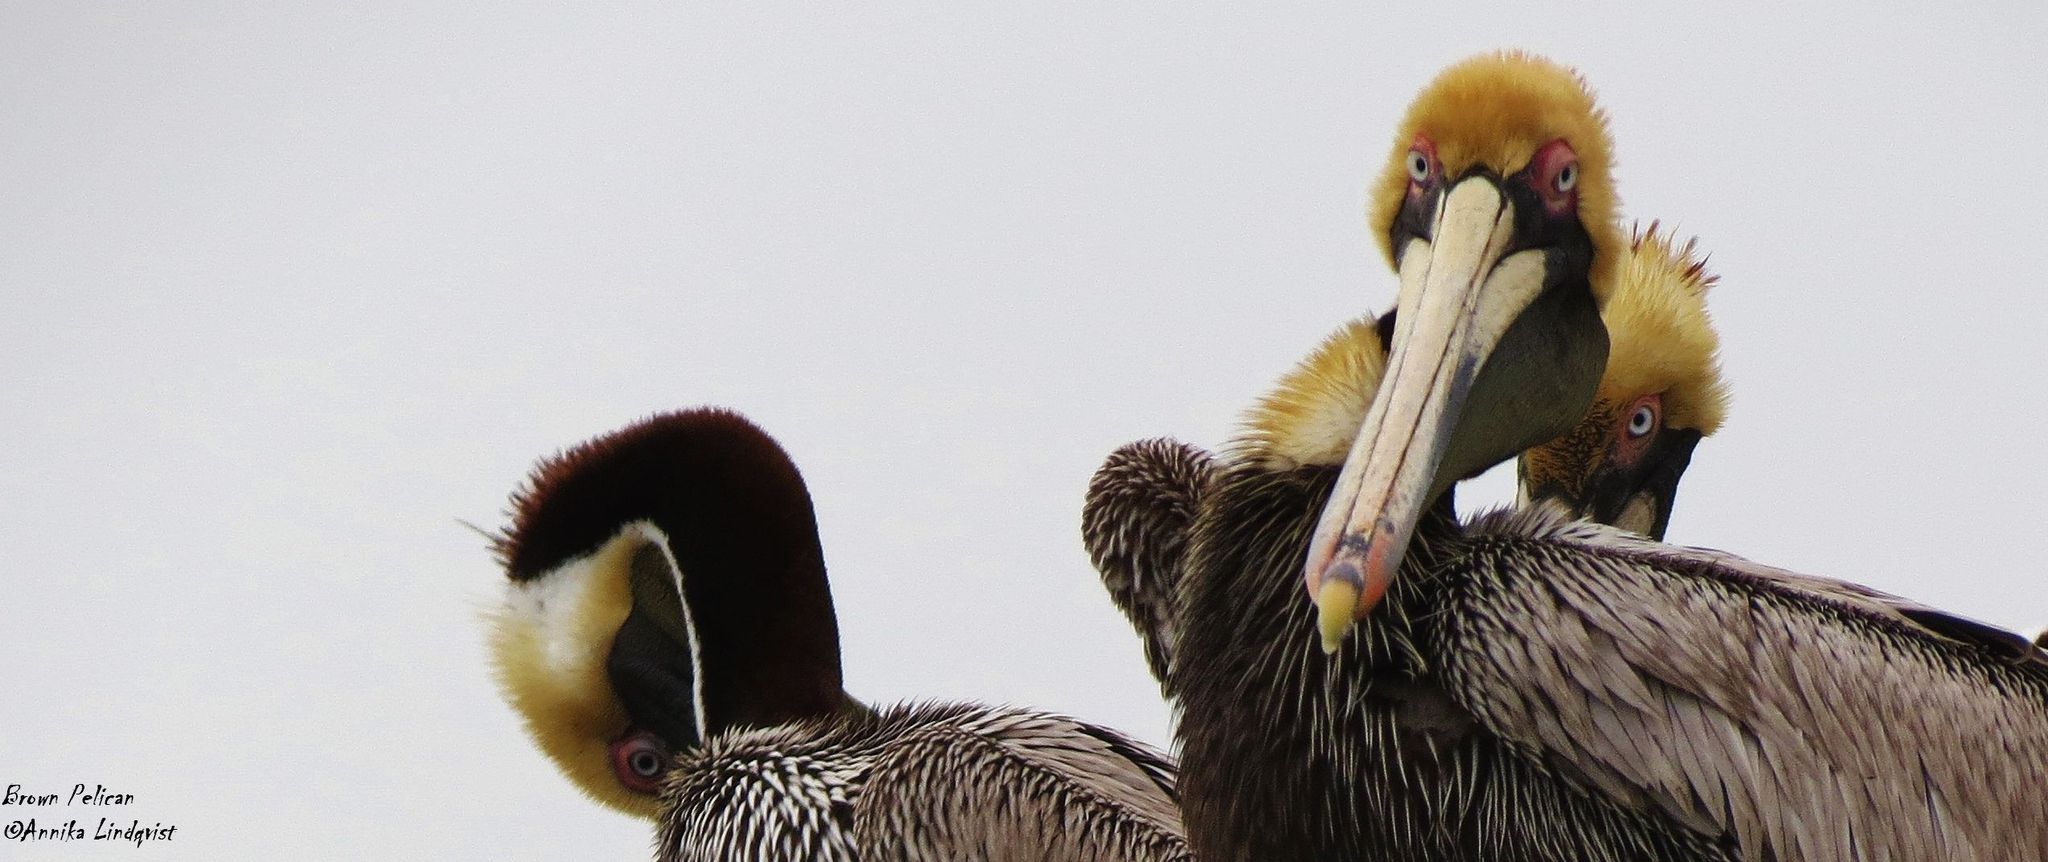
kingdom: Animalia
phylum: Chordata
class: Aves
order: Pelecaniformes
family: Pelecanidae
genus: Pelecanus
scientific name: Pelecanus occidentalis
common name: Brown pelican
